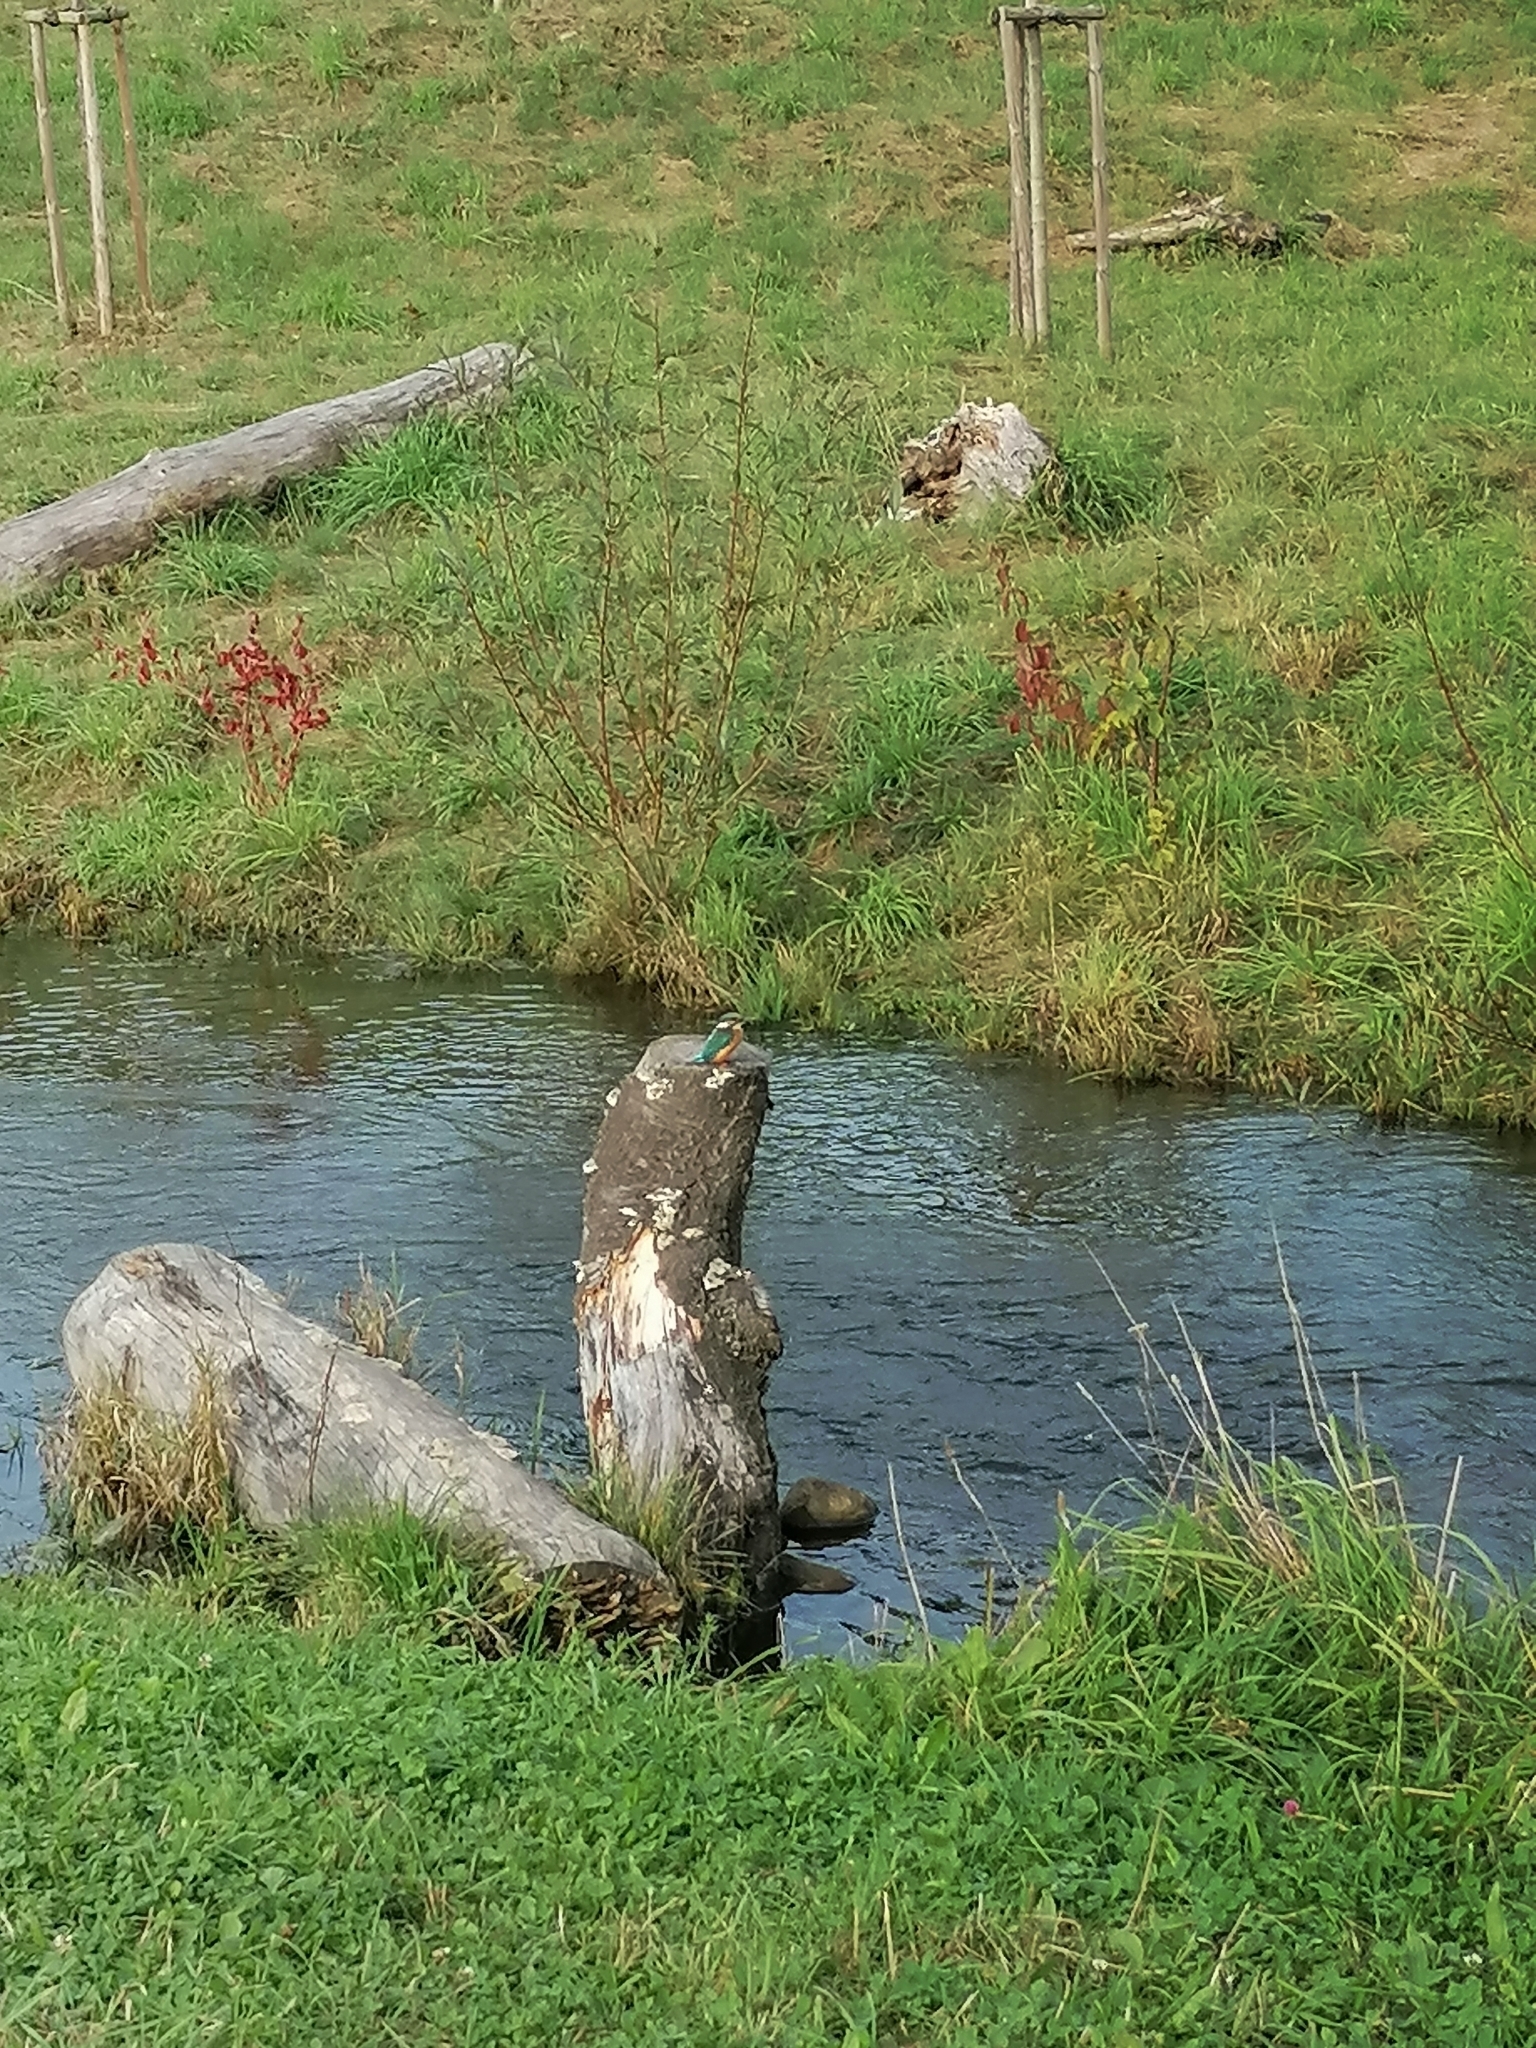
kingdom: Animalia
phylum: Chordata
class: Aves
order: Coraciiformes
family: Alcedinidae
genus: Alcedo
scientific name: Alcedo atthis
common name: Common kingfisher
